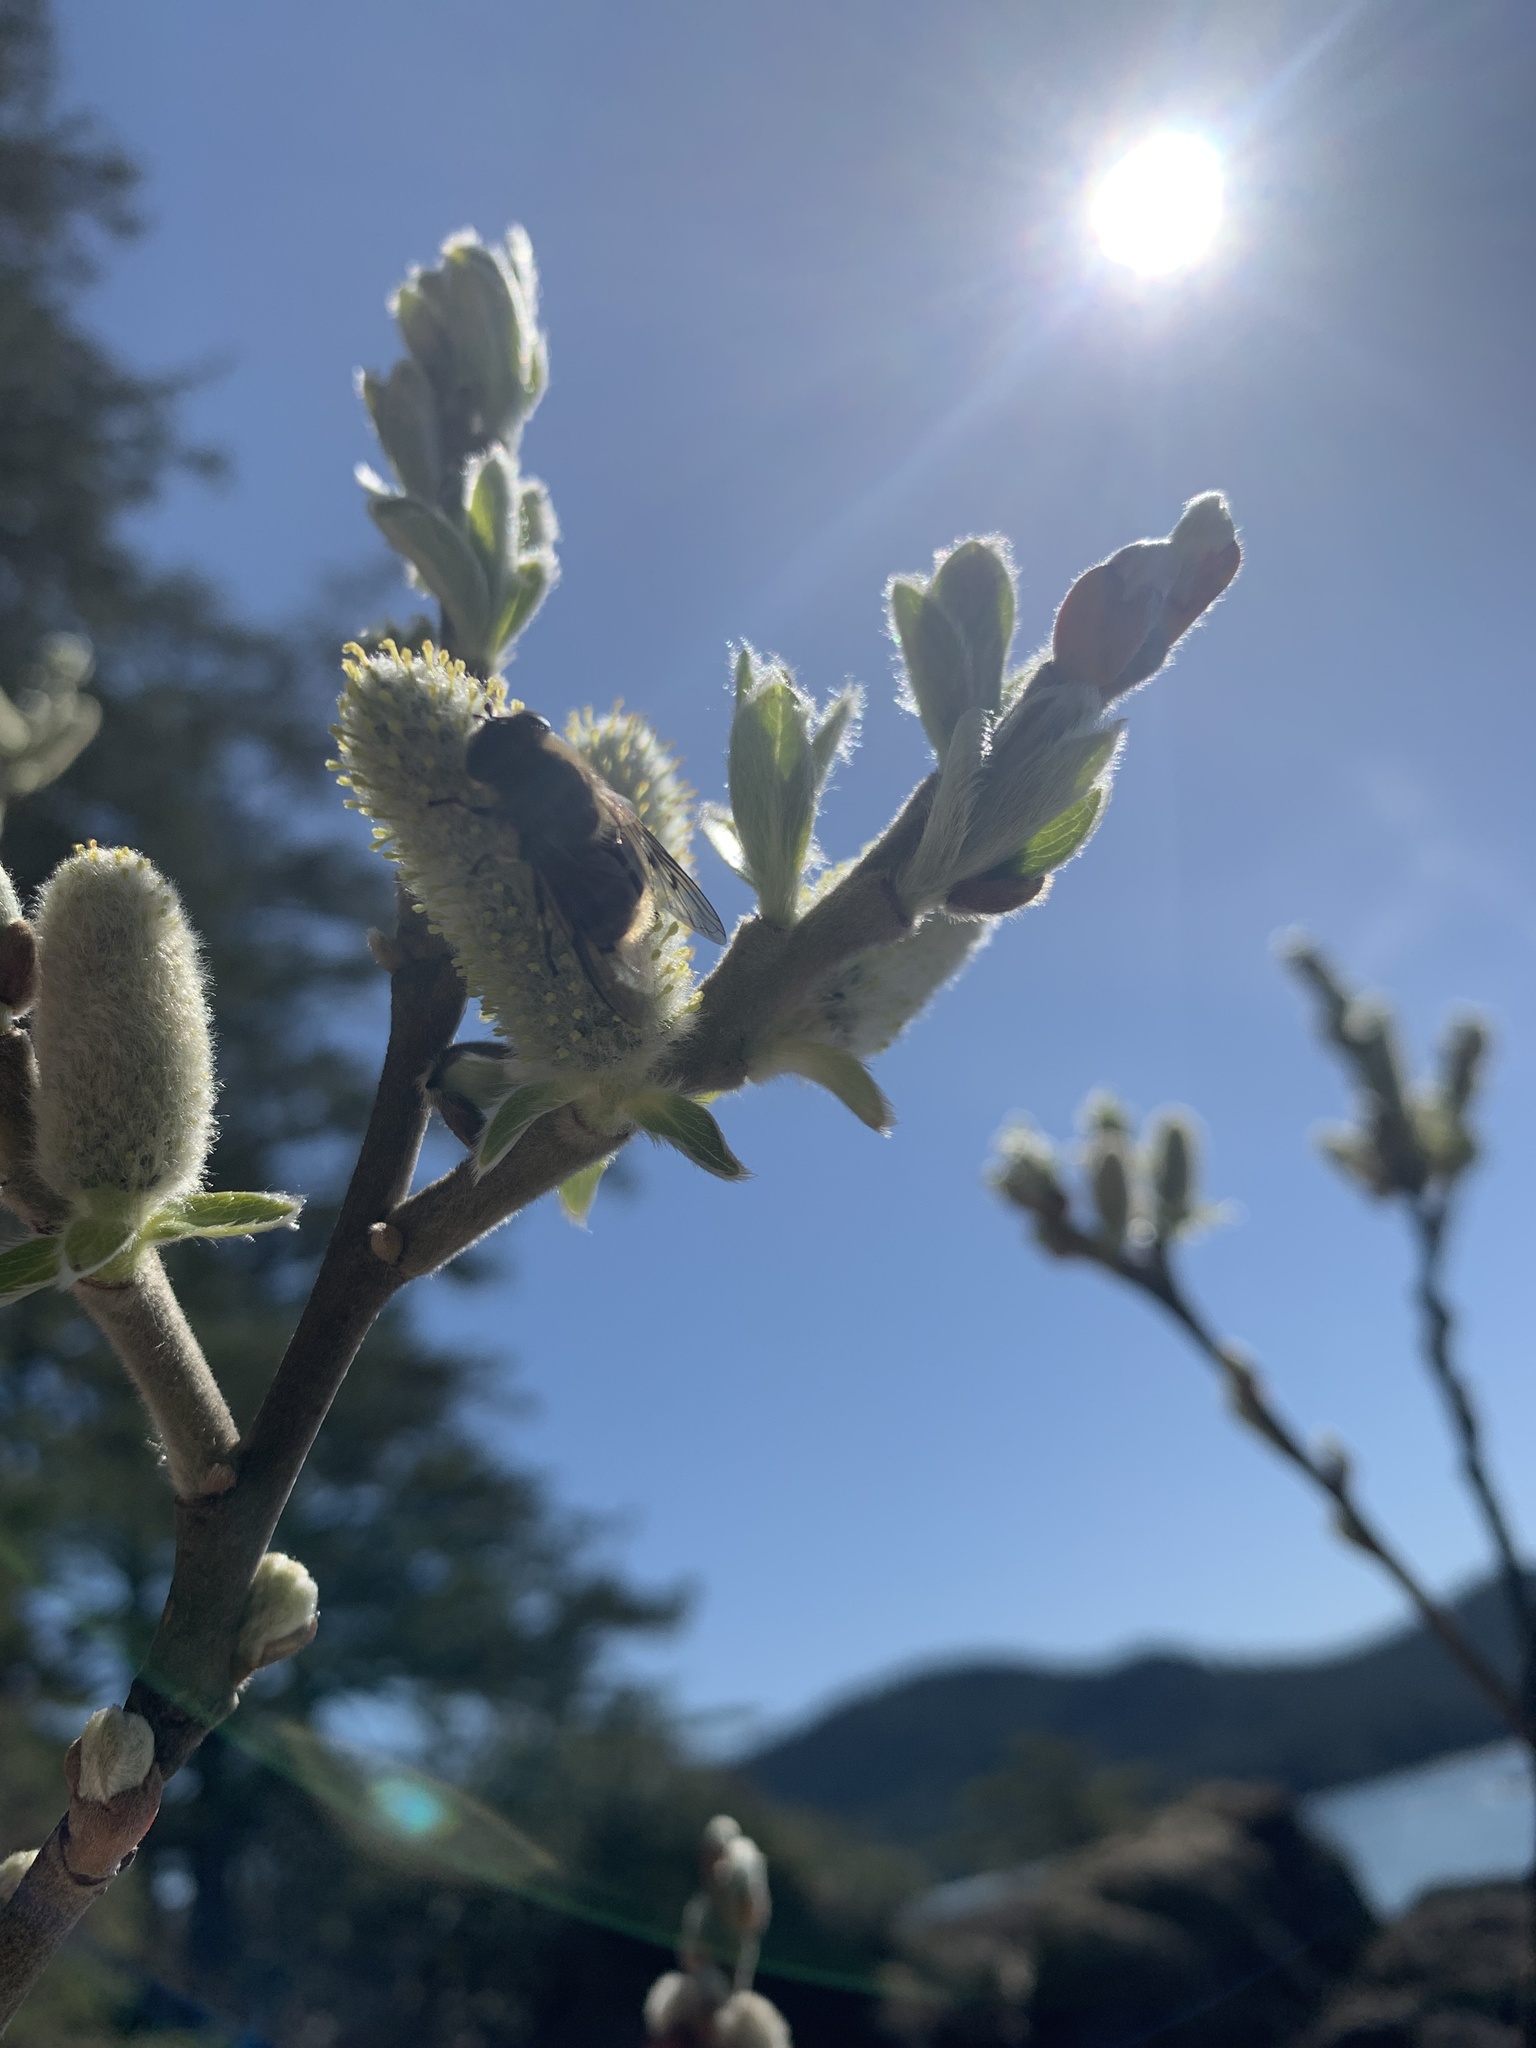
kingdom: Animalia
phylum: Arthropoda
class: Insecta
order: Diptera
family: Syrphidae
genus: Pyritis
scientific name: Pyritis kincaidii
